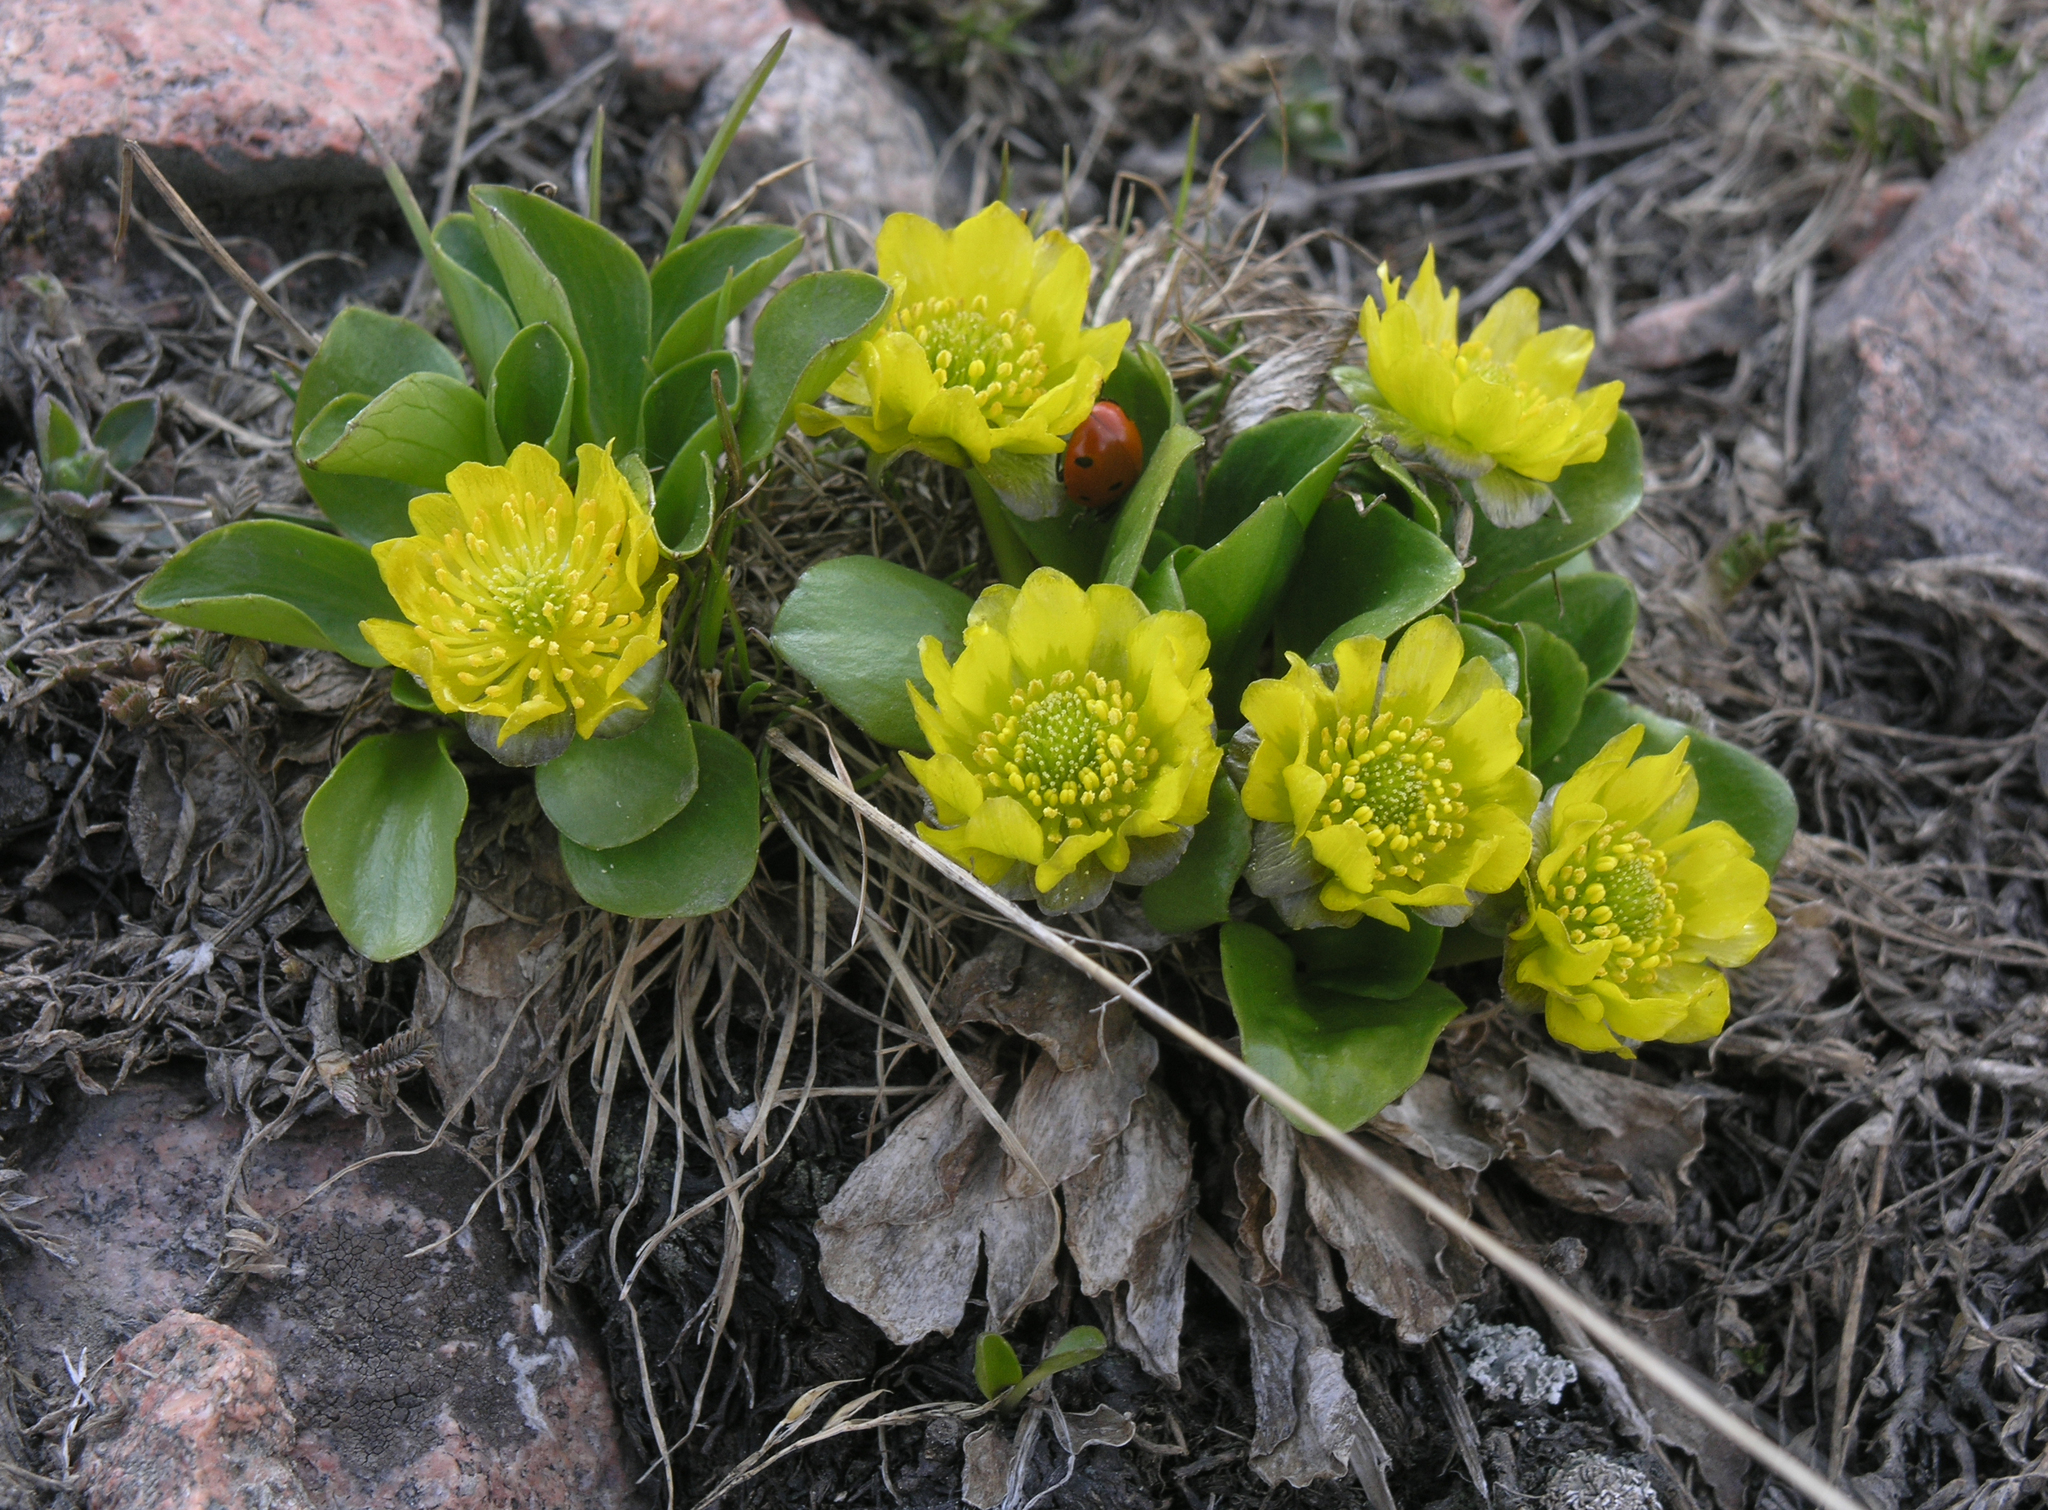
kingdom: Plantae
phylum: Tracheophyta
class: Magnoliopsida
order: Ranunculales
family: Ranunculaceae
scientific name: Ranunculaceae
